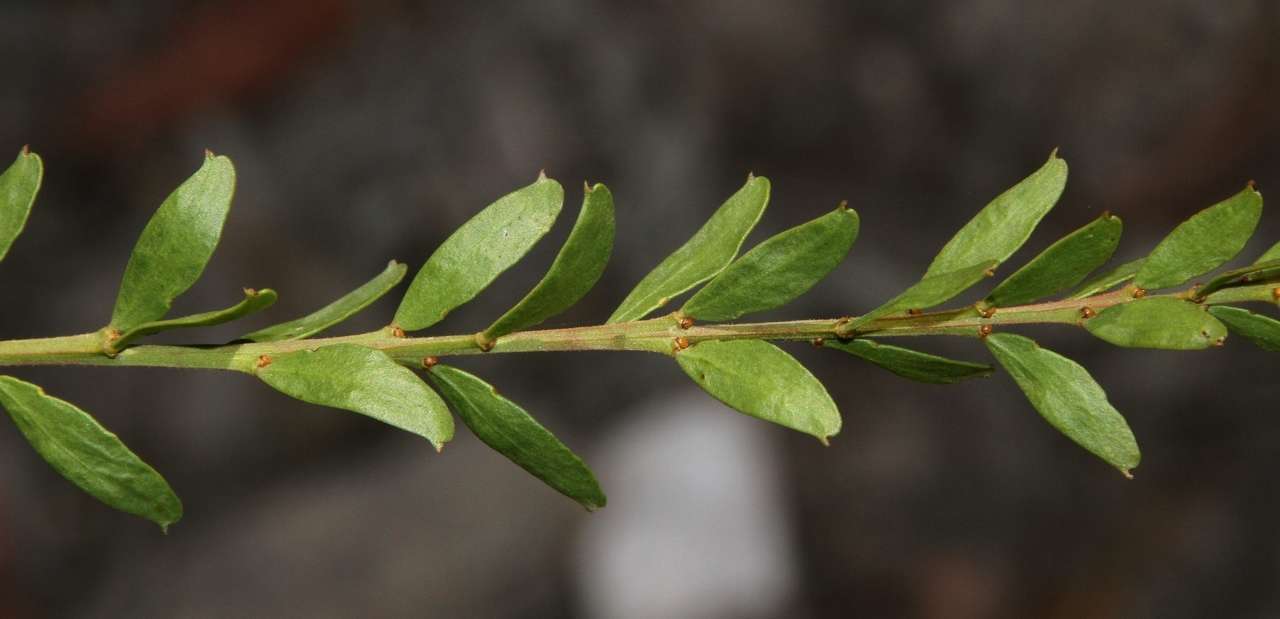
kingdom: Plantae
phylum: Tracheophyta
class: Magnoliopsida
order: Fabales
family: Fabaceae
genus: Acacia
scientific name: Acacia acinacea
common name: Gold-dust acacia
